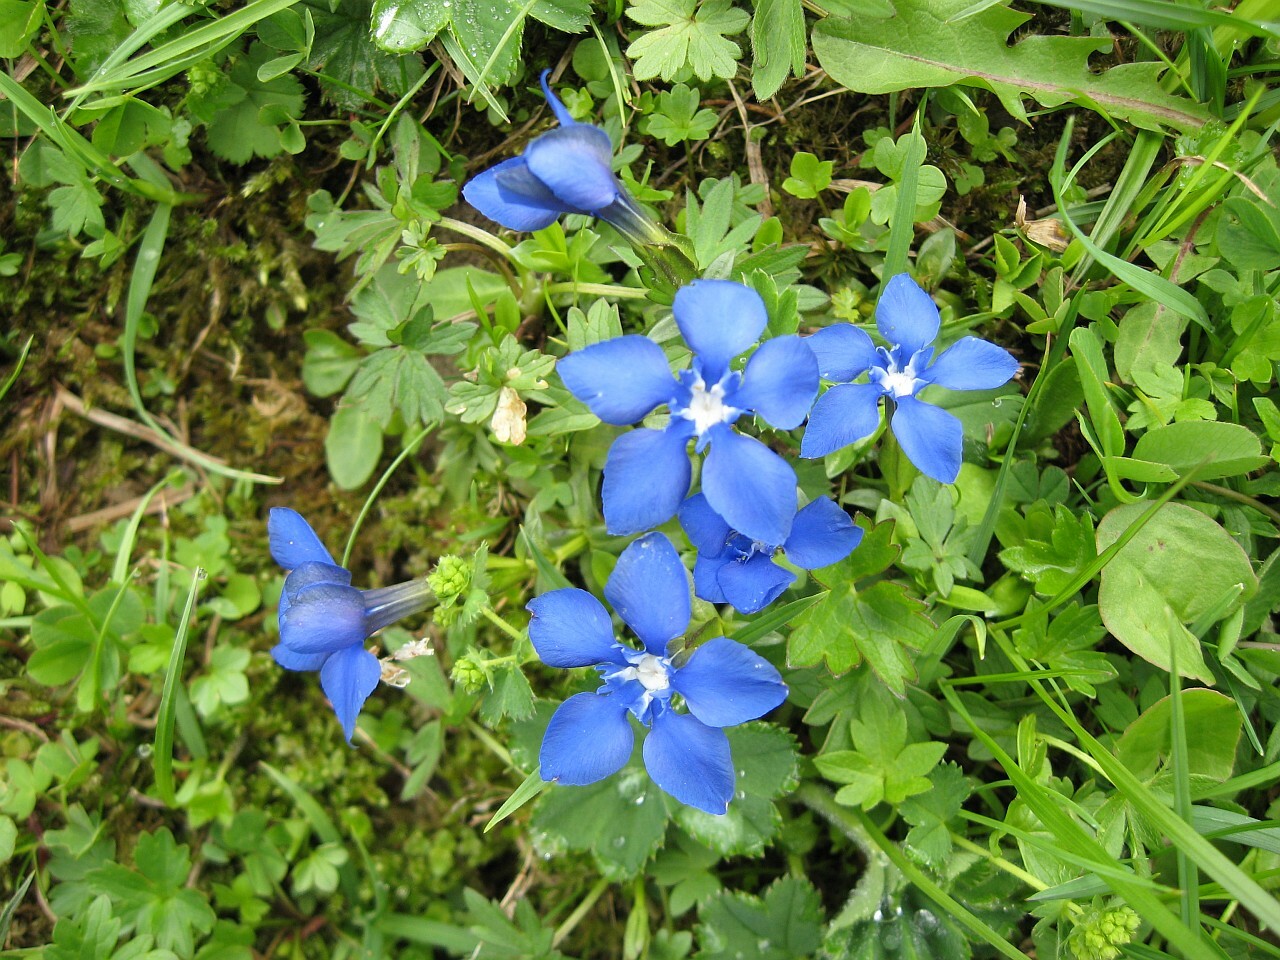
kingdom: Plantae
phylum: Tracheophyta
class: Magnoliopsida
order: Gentianales
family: Gentianaceae
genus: Gentiana
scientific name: Gentiana verna
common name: Spring gentian
